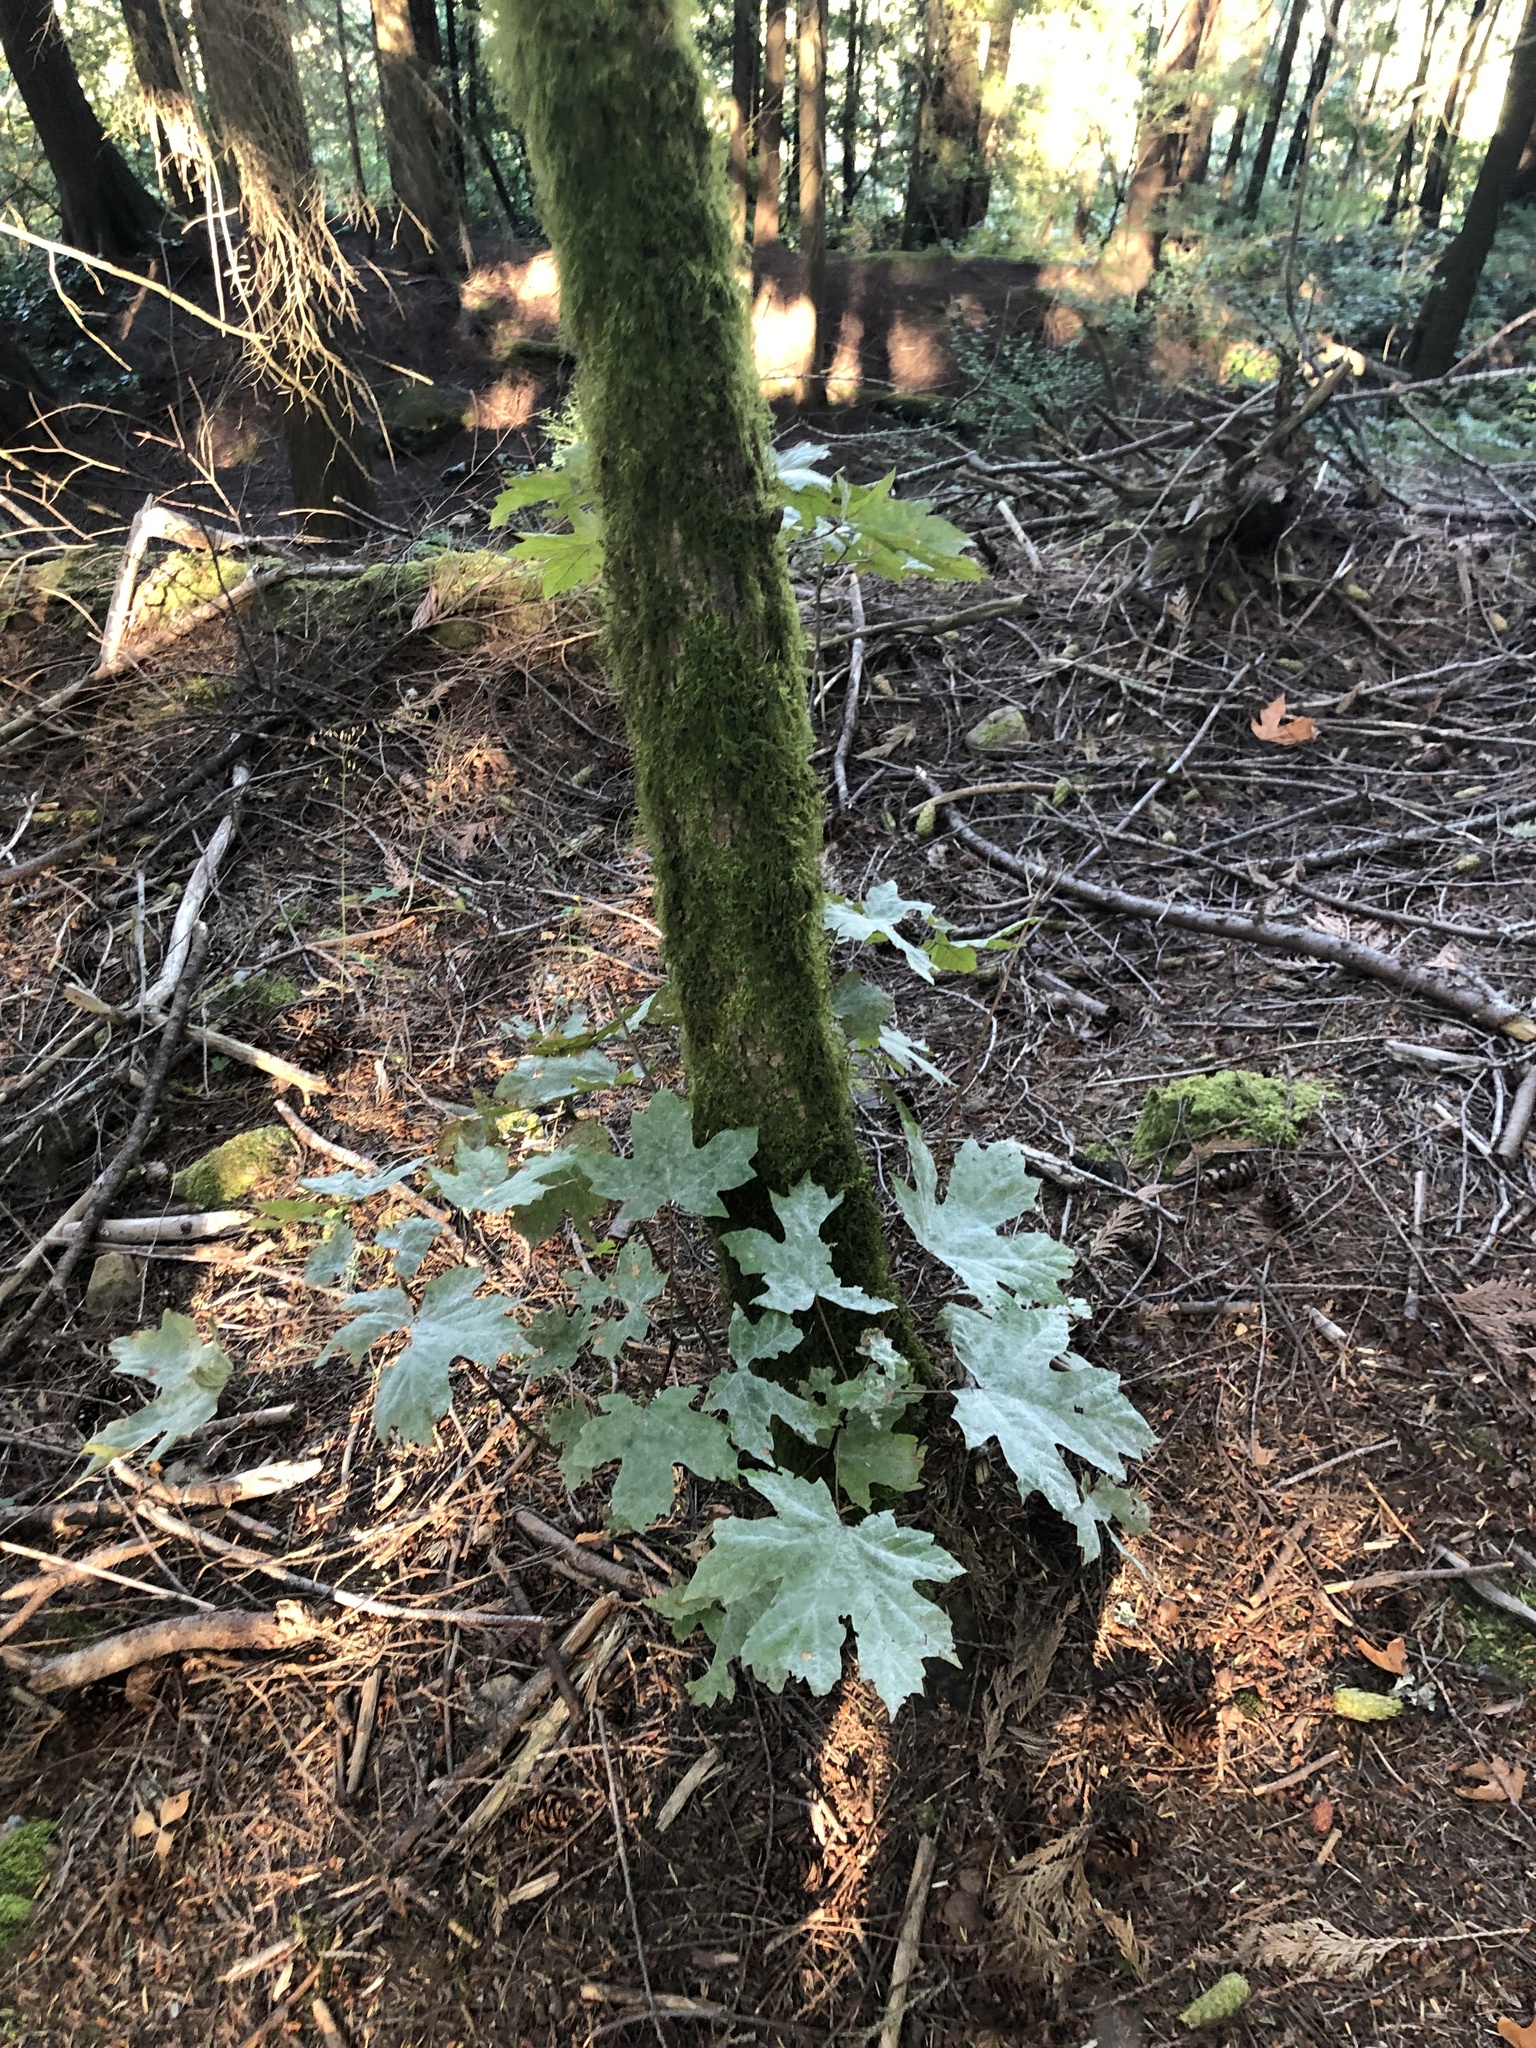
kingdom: Plantae
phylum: Tracheophyta
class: Magnoliopsida
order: Sapindales
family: Sapindaceae
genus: Acer
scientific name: Acer macrophyllum
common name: Oregon maple
